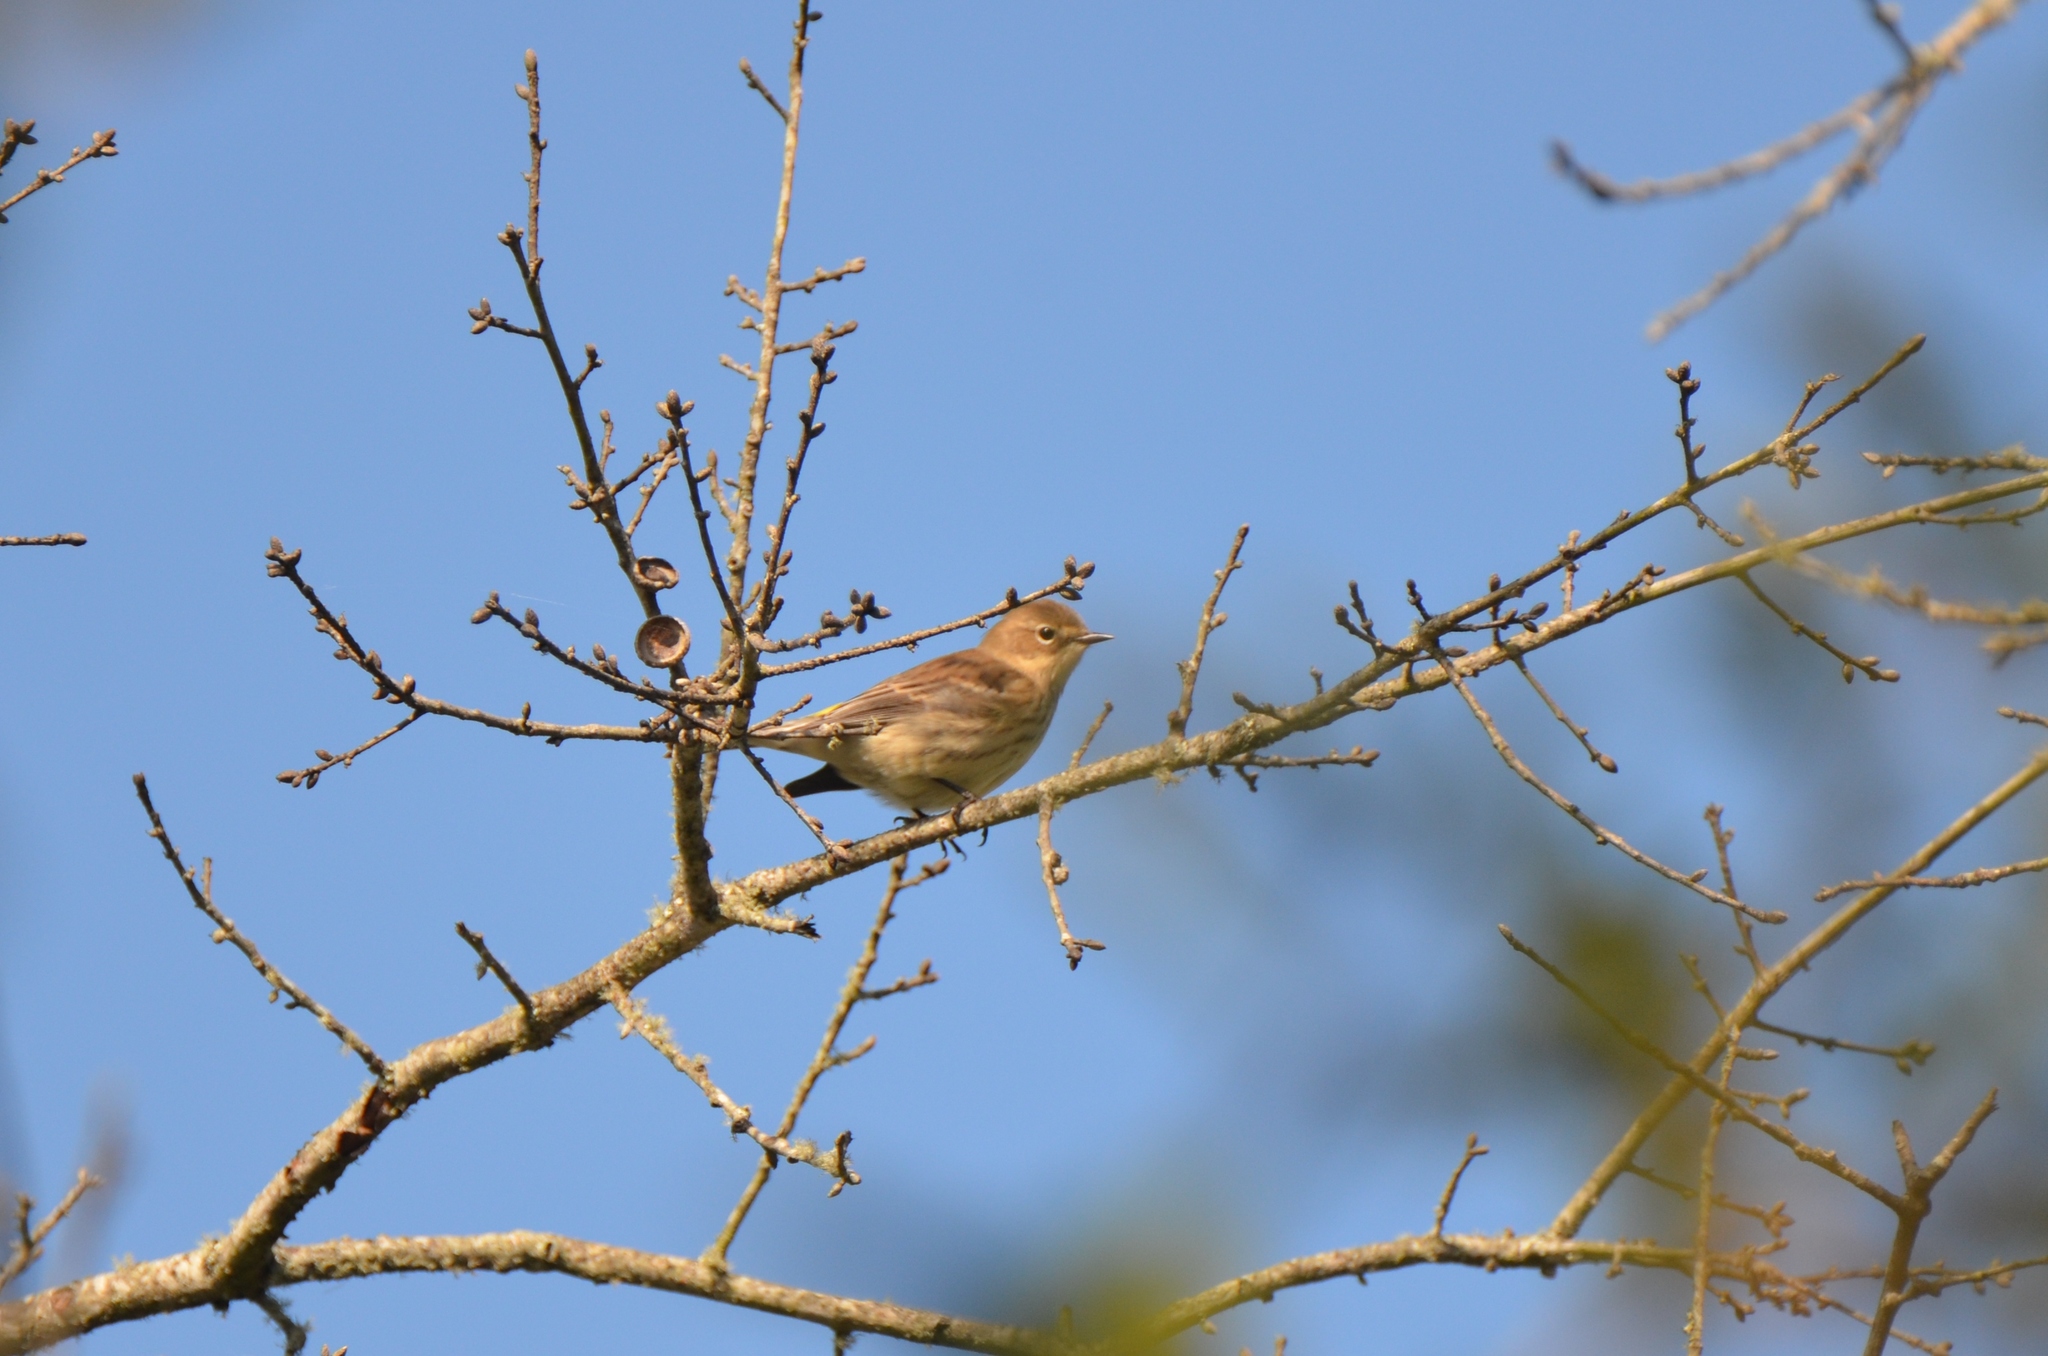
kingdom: Animalia
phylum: Chordata
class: Aves
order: Passeriformes
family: Parulidae
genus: Setophaga
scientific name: Setophaga coronata
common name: Myrtle warbler
